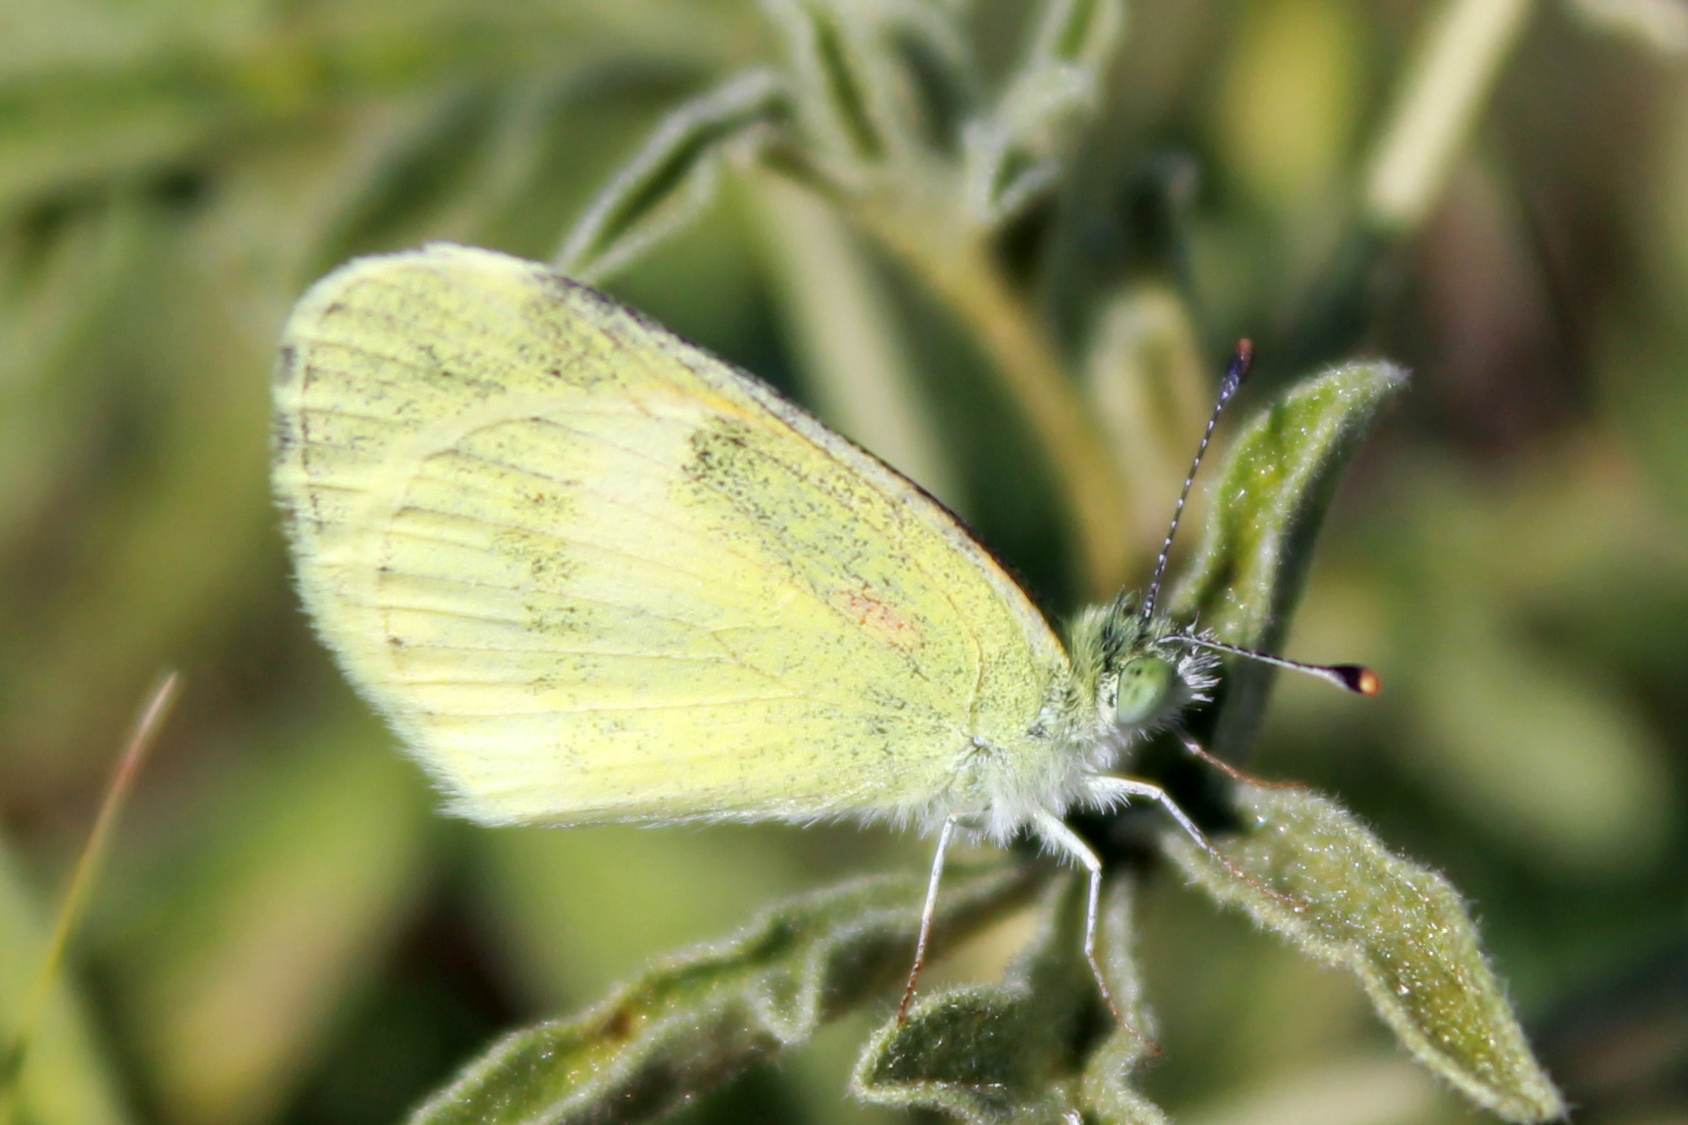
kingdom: Animalia
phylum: Arthropoda
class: Insecta
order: Lepidoptera
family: Pieridae
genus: Nathalis
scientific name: Nathalis iole
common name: Dainty sulphur
